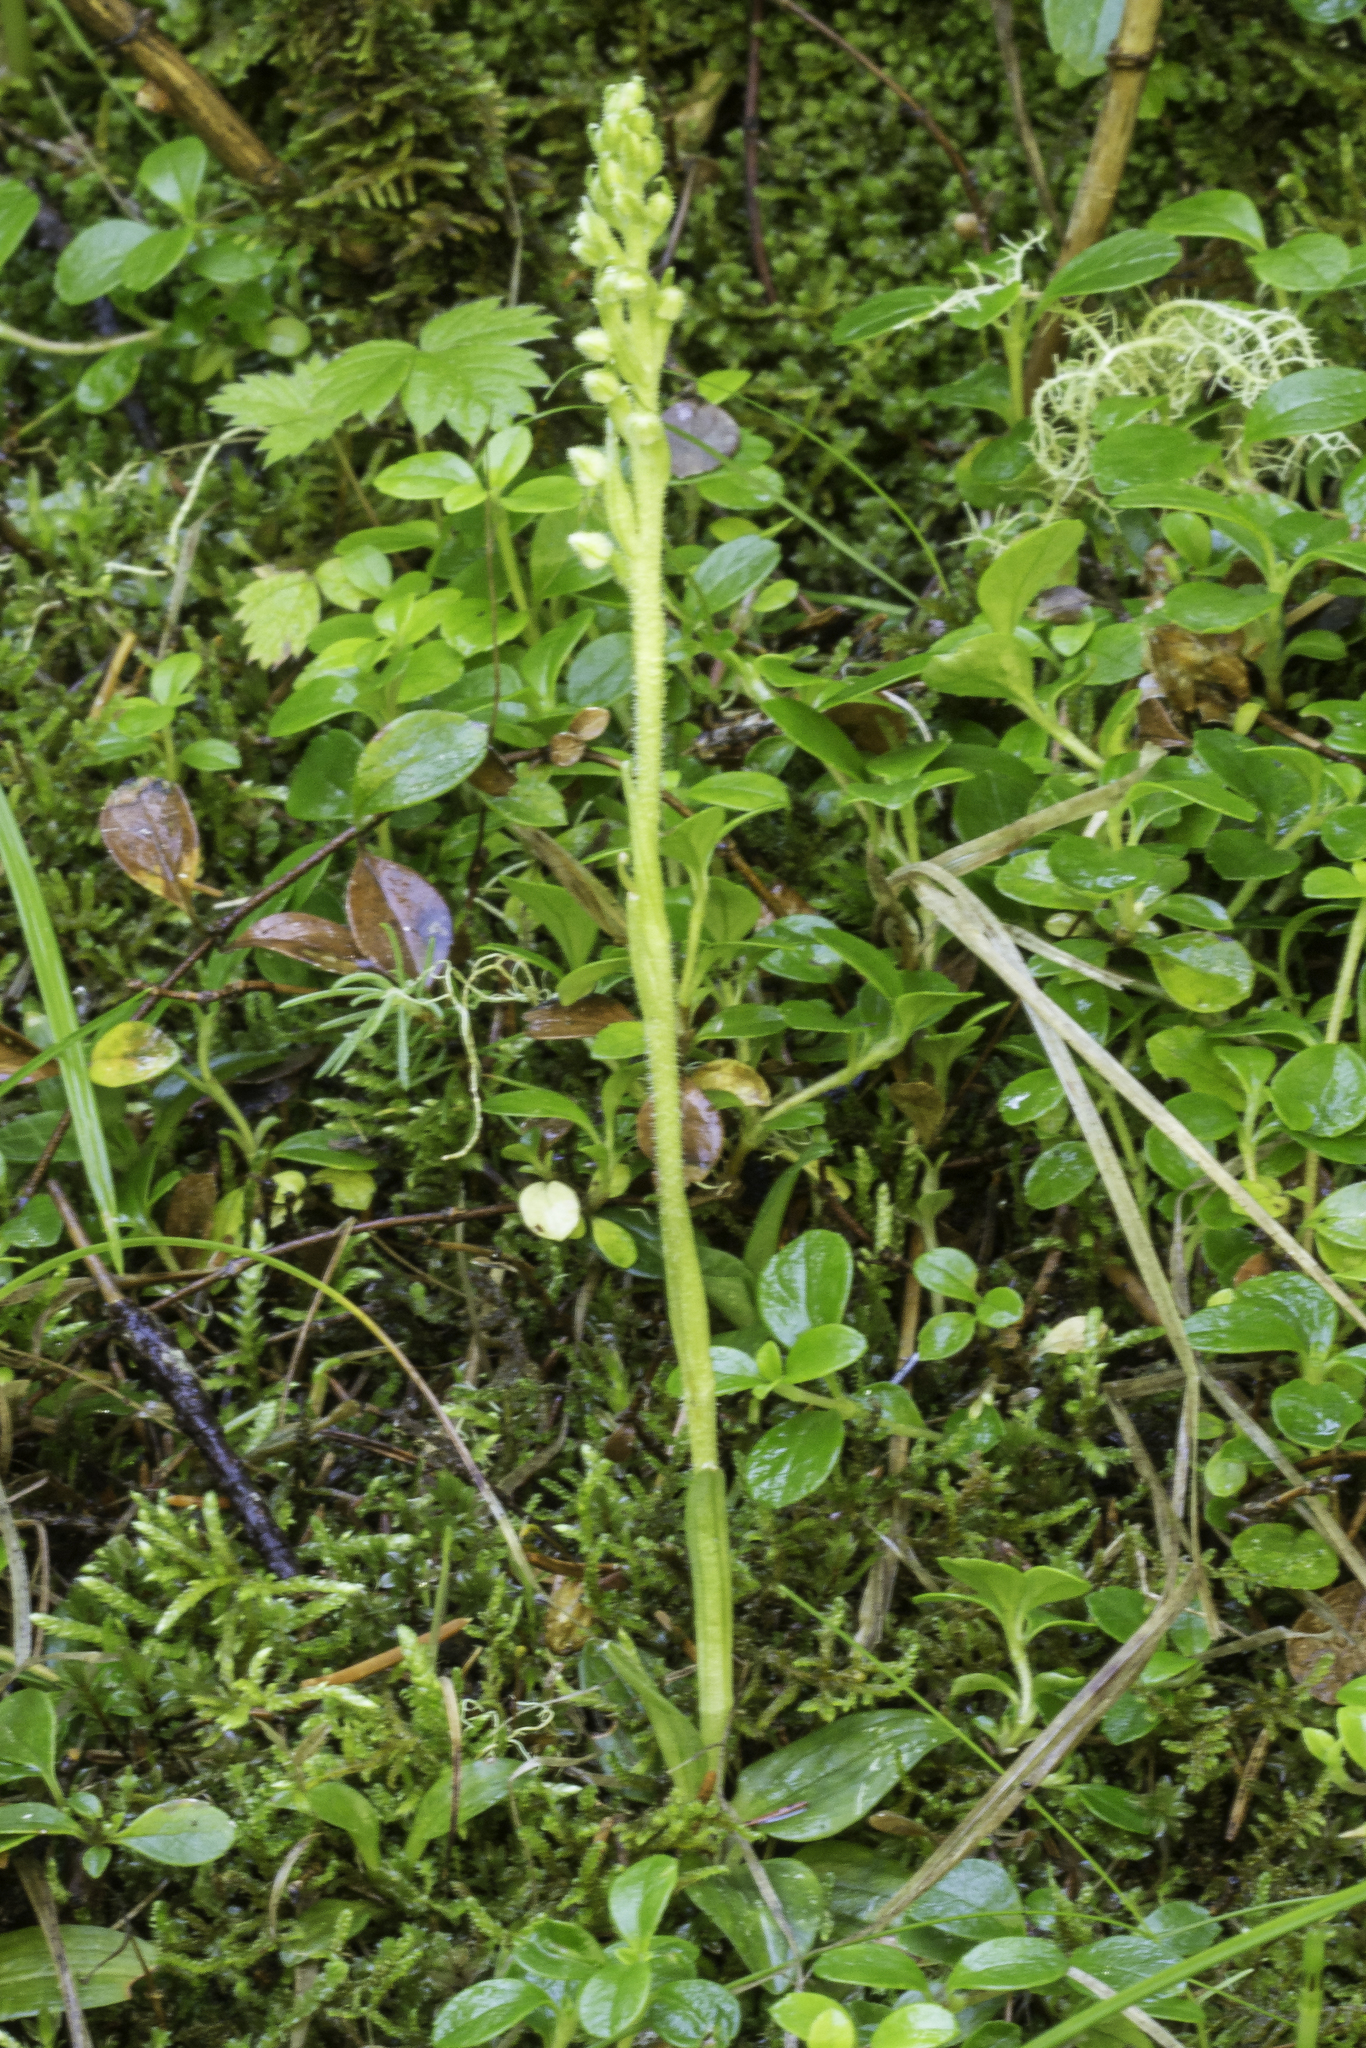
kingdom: Plantae
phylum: Tracheophyta
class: Liliopsida
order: Asparagales
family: Orchidaceae
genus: Goodyera
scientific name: Goodyera repens
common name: Creeping lady's-tresses
